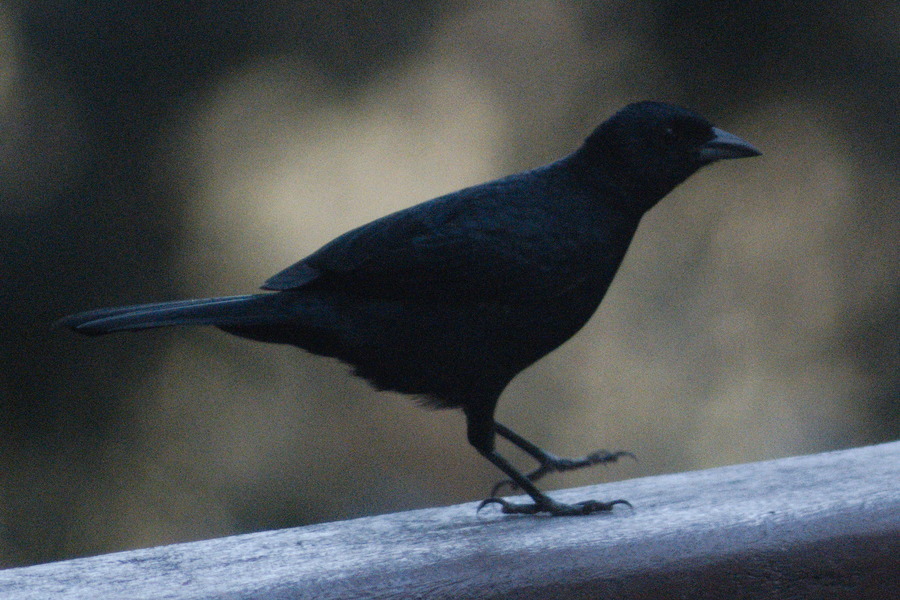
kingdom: Animalia
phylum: Chordata
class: Aves
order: Passeriformes
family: Thraupidae
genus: Tachyphonus
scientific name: Tachyphonus coronatus
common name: Ruby-crowned tanager
